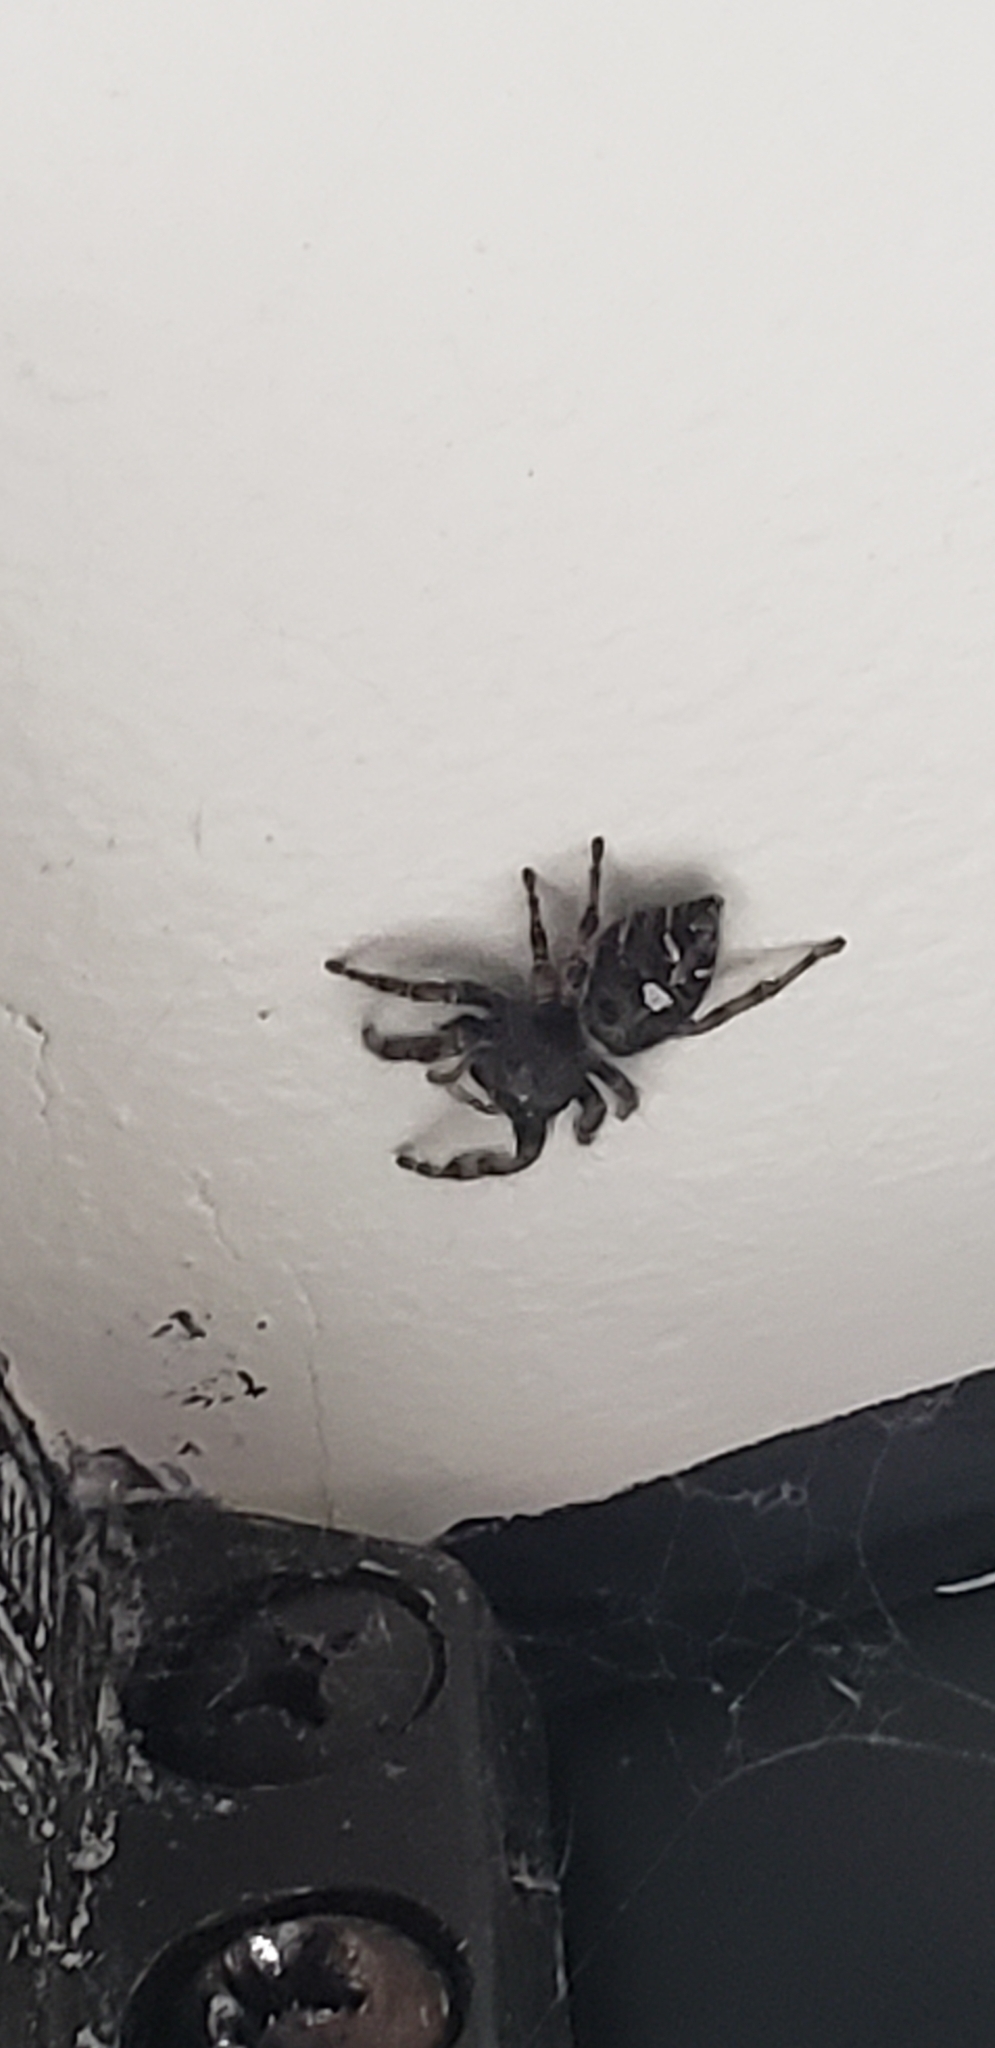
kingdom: Animalia
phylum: Arthropoda
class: Arachnida
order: Araneae
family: Salticidae
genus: Phidippus
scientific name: Phidippus audax
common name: Bold jumper
